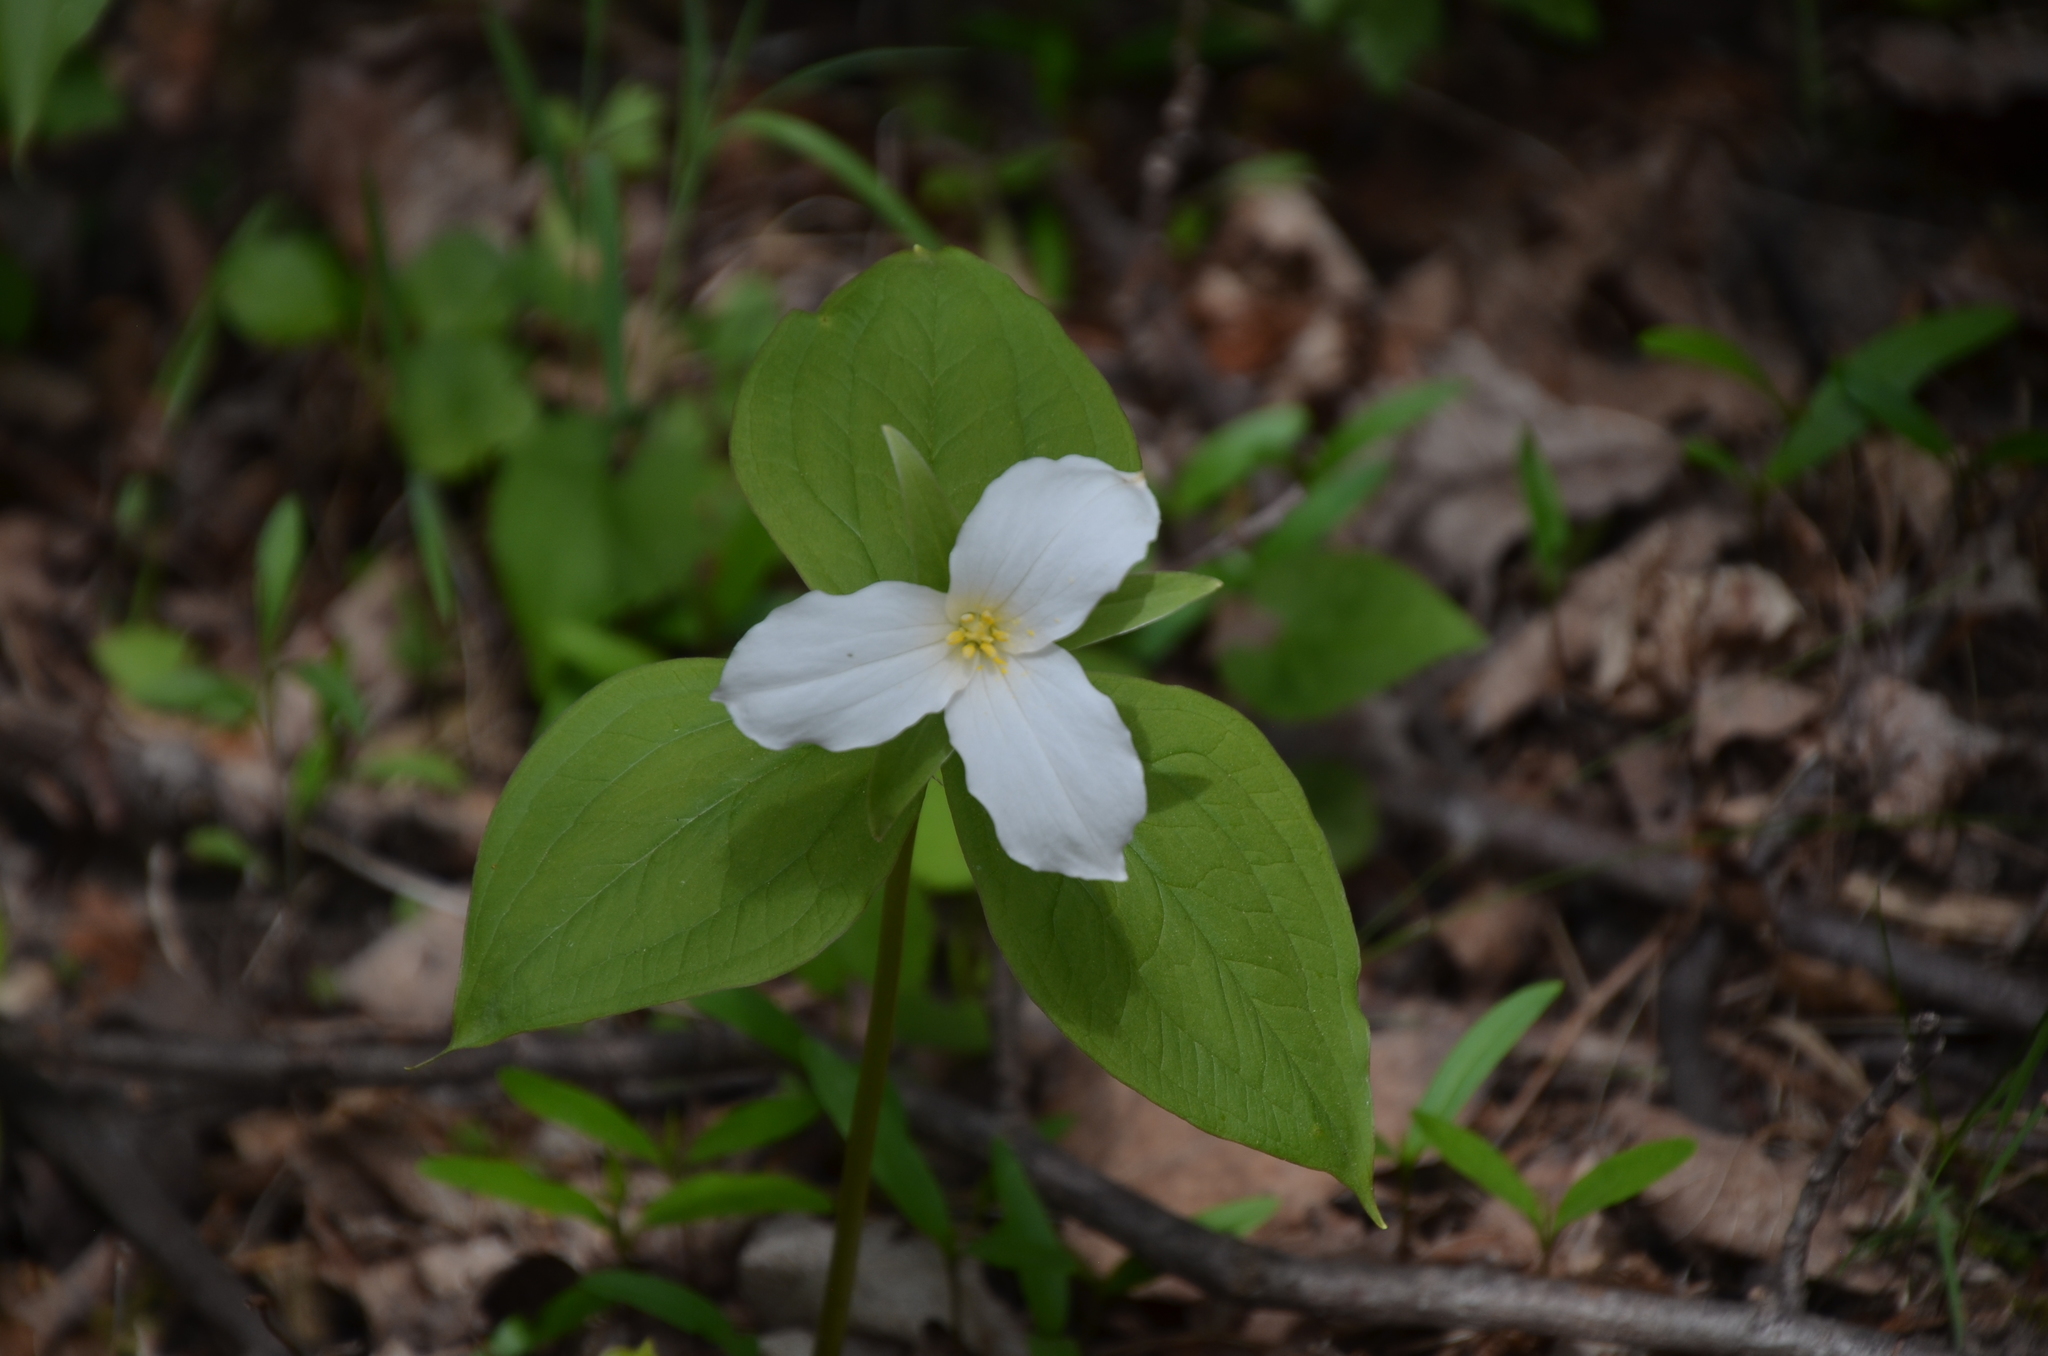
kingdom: Plantae
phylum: Tracheophyta
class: Liliopsida
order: Liliales
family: Melanthiaceae
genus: Trillium
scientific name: Trillium grandiflorum
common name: Great white trillium
